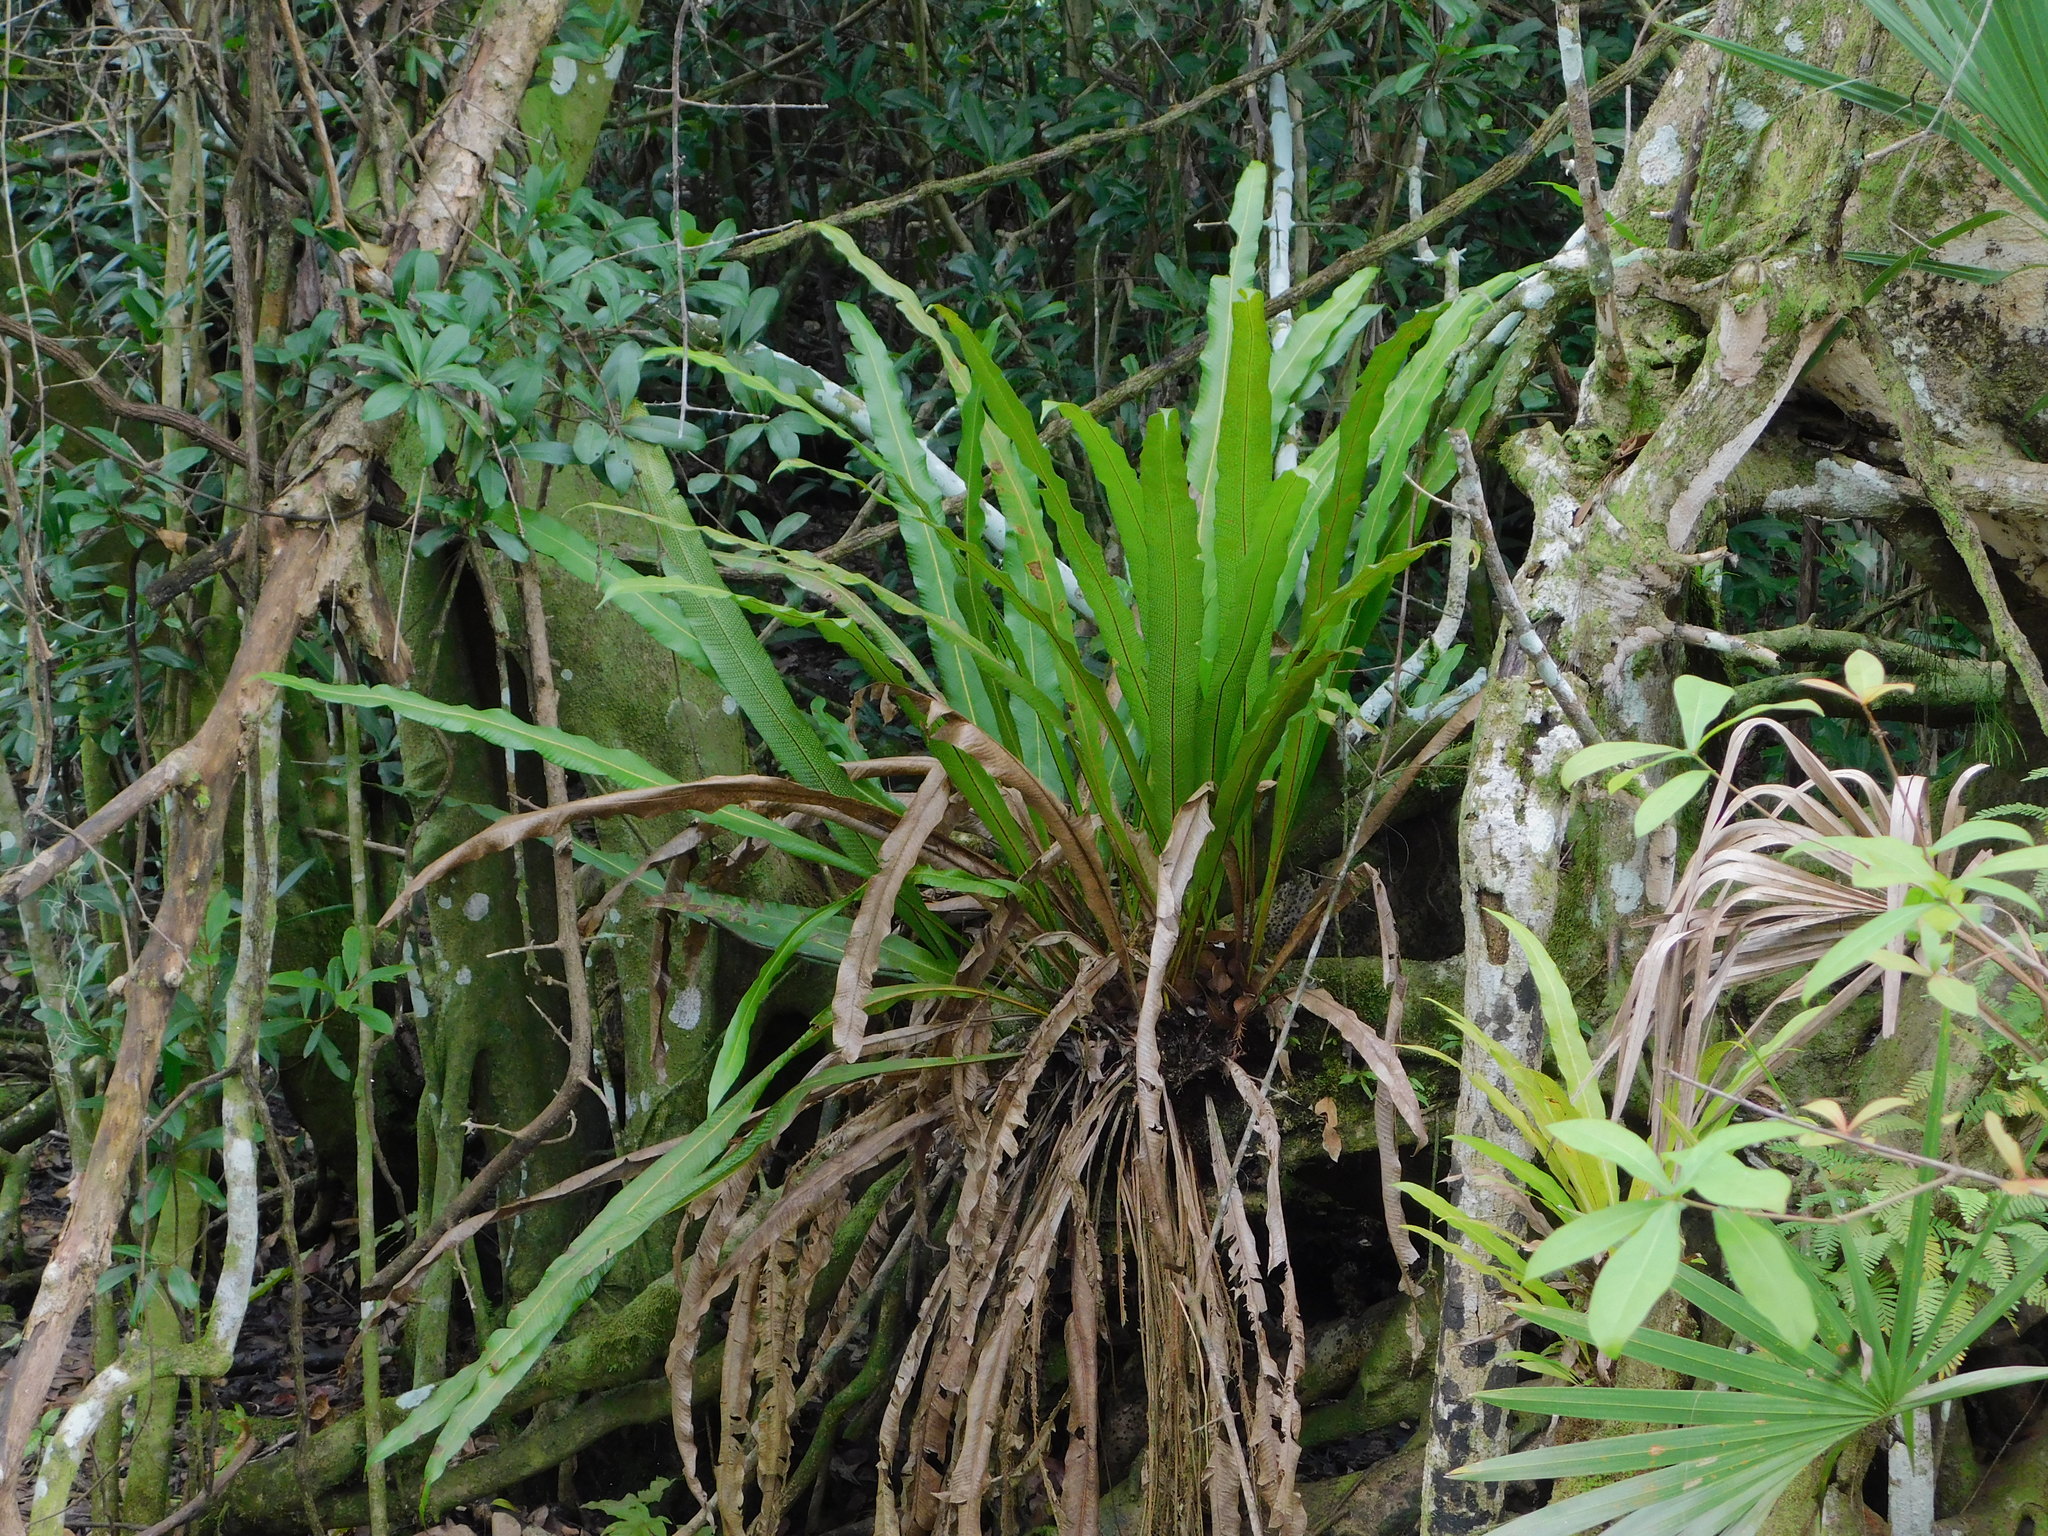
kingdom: Plantae
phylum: Tracheophyta
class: Polypodiopsida
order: Polypodiales
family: Polypodiaceae
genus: Campyloneurum
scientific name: Campyloneurum phyllitidis
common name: Cow-tongue fern
